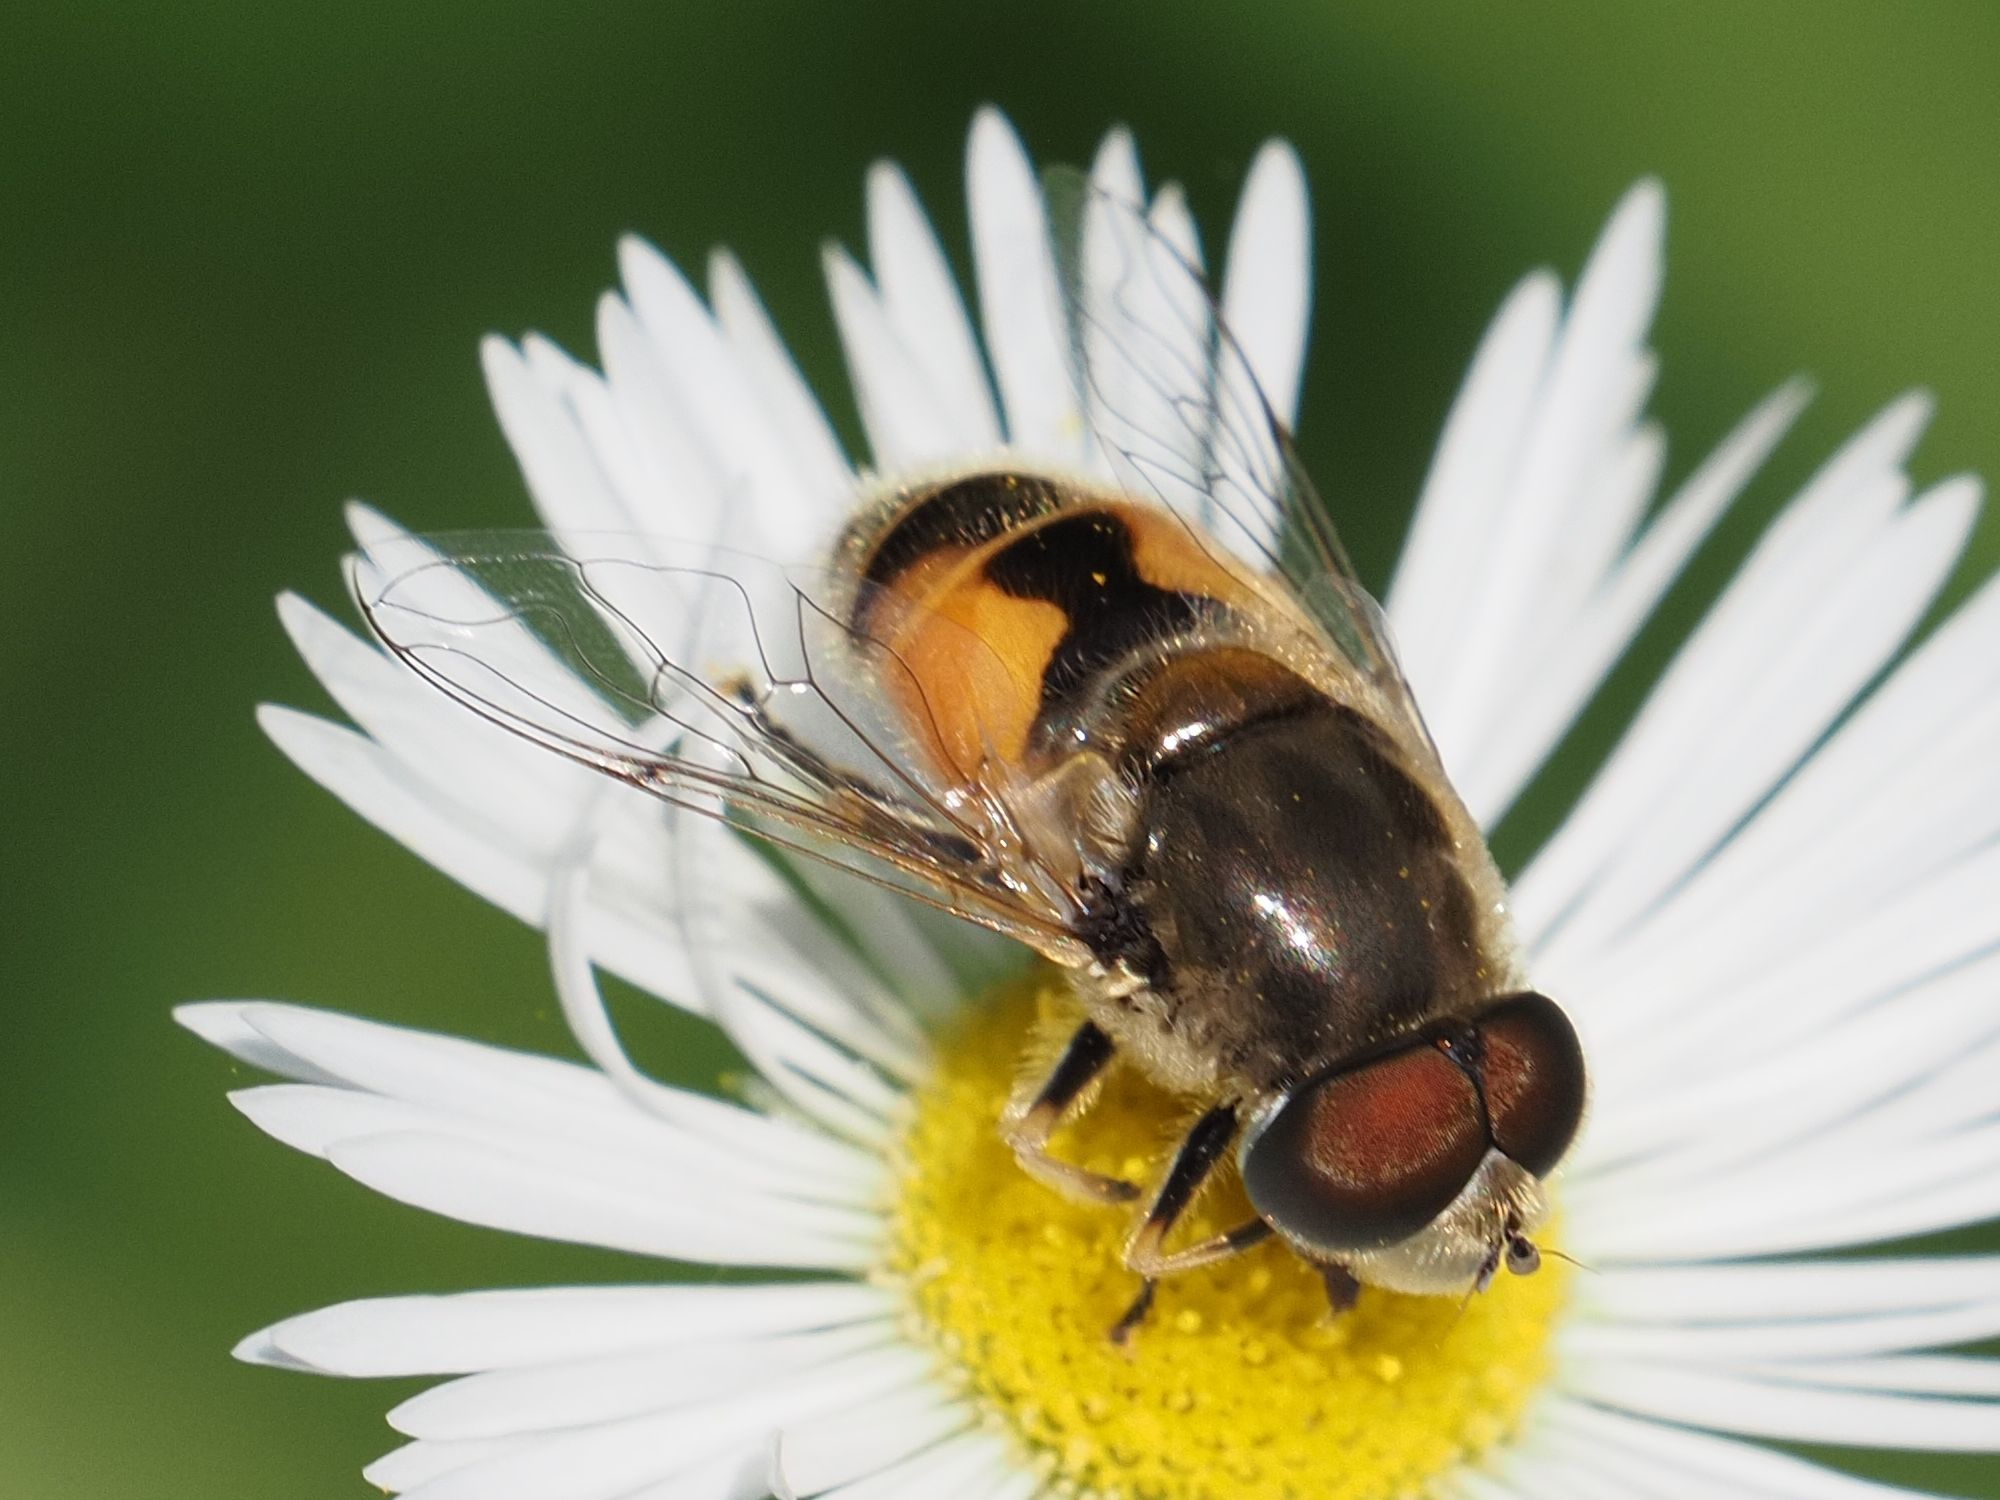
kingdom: Animalia
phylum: Arthropoda
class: Insecta
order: Diptera
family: Syrphidae
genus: Eristalis
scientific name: Eristalis arbustorum
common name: Hover fly
